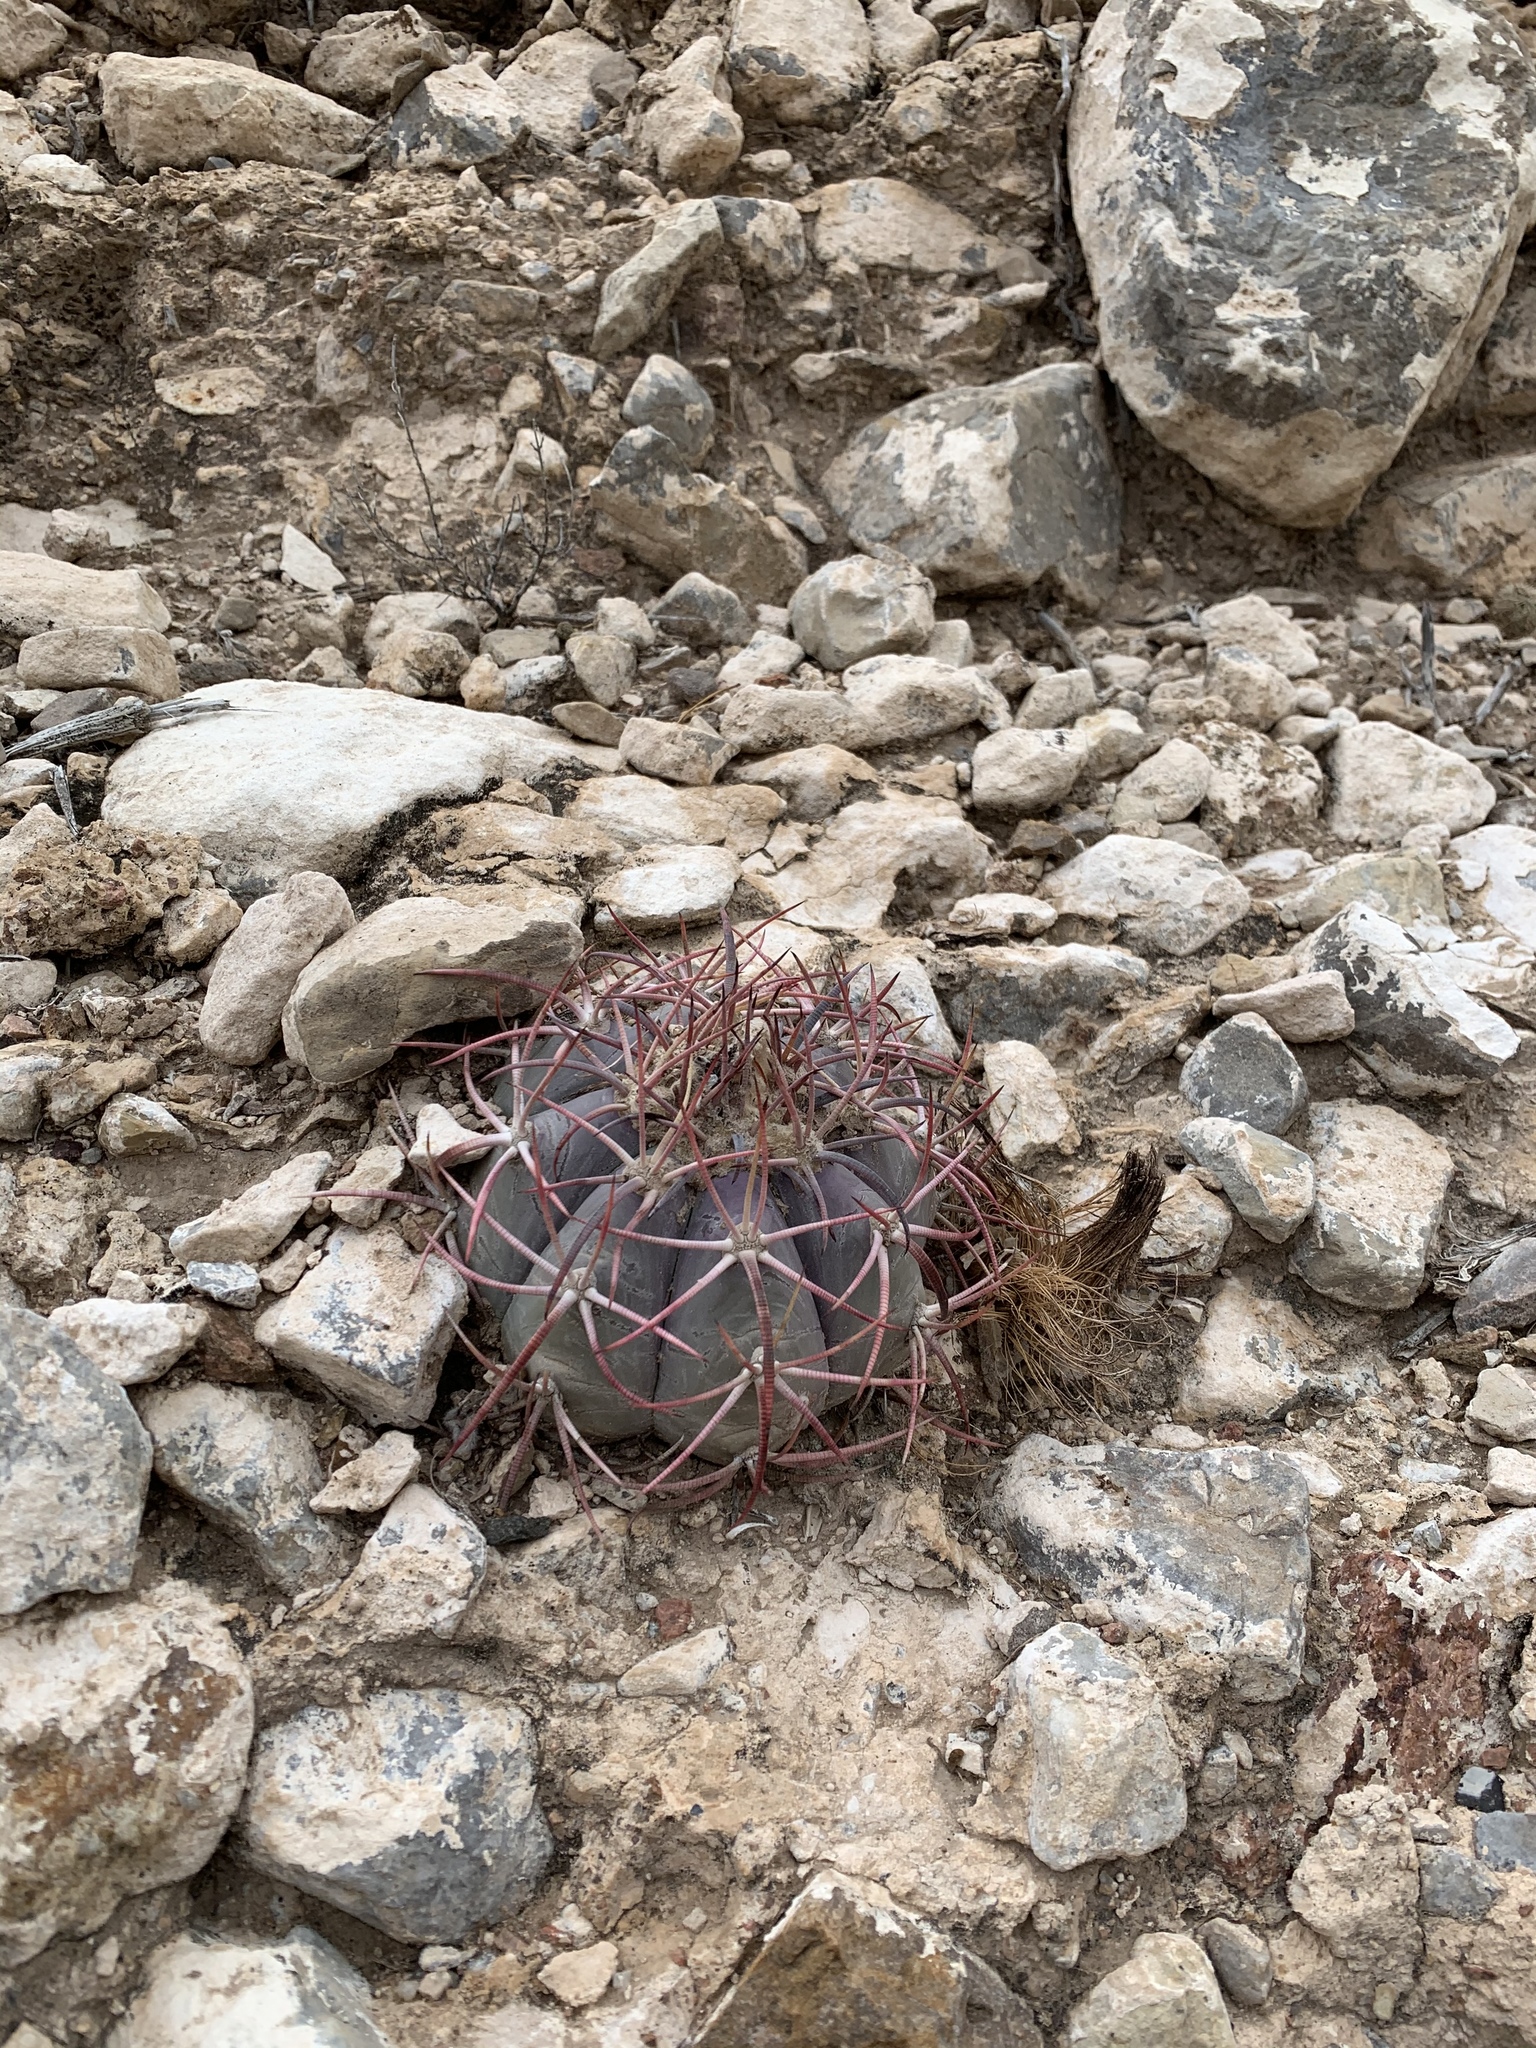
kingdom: Plantae
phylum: Tracheophyta
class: Magnoliopsida
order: Caryophyllales
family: Cactaceae
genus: Echinocactus
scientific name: Echinocactus horizonthalonius
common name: Devilshead
